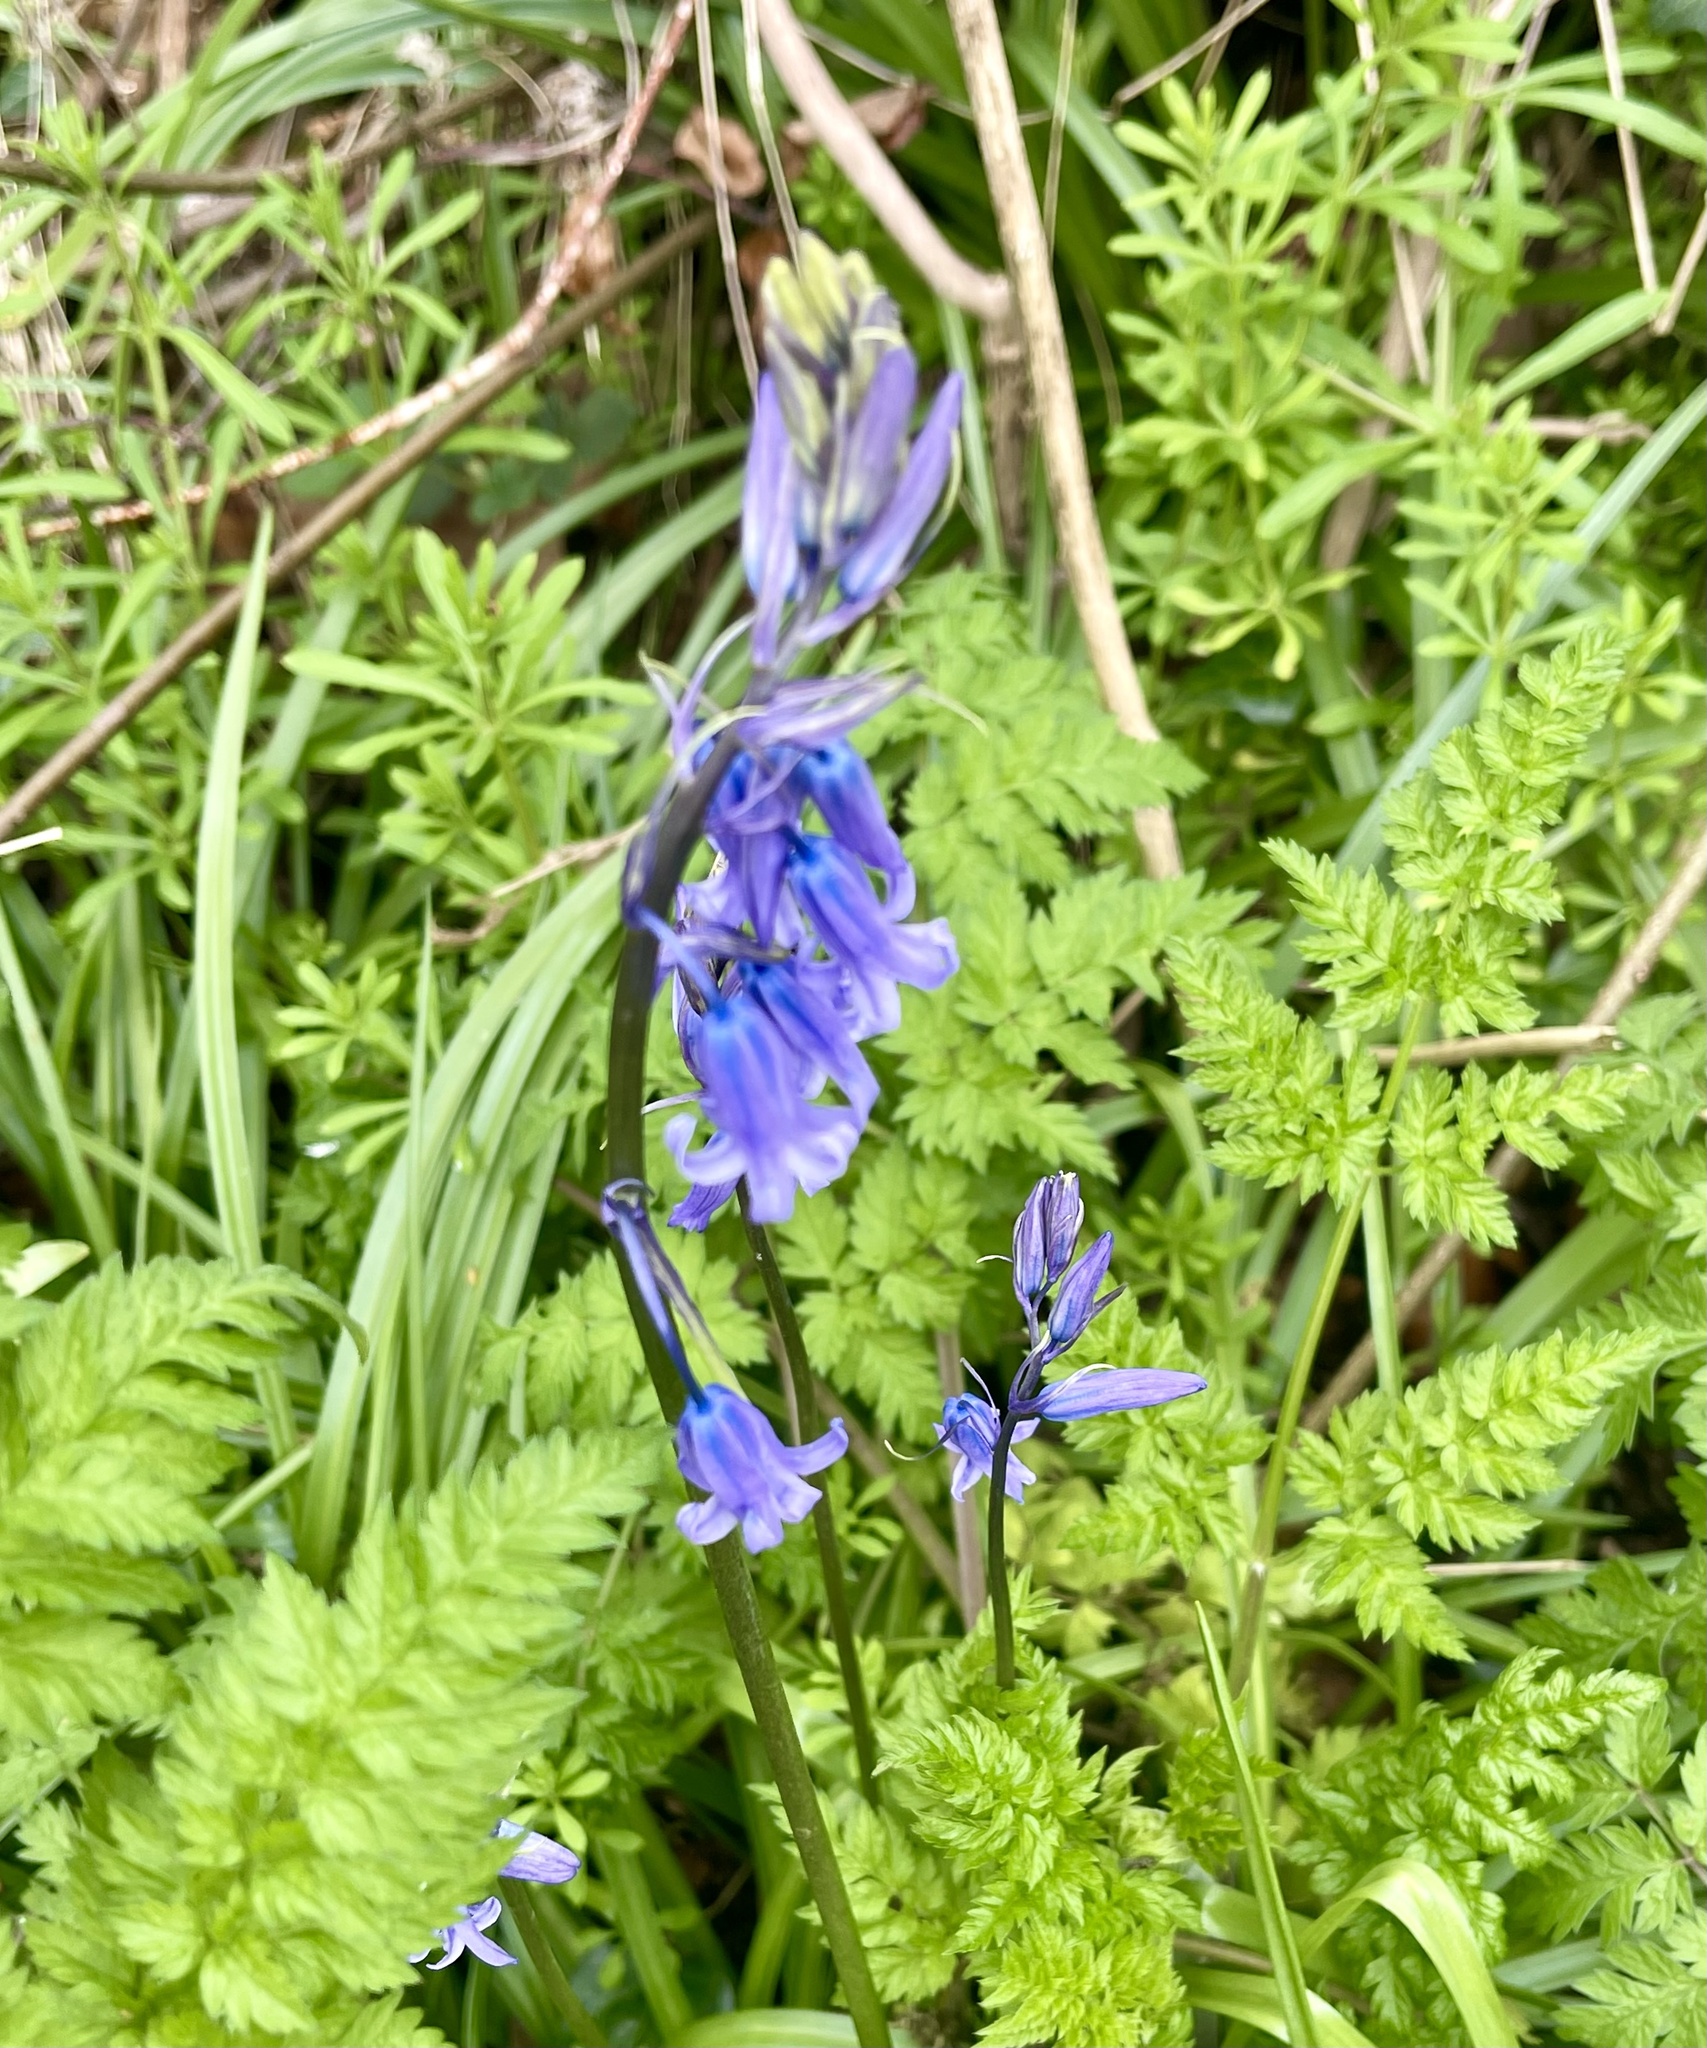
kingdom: Plantae
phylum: Tracheophyta
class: Liliopsida
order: Asparagales
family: Asparagaceae
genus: Hyacinthoides
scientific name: Hyacinthoides non-scripta
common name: Bluebell
